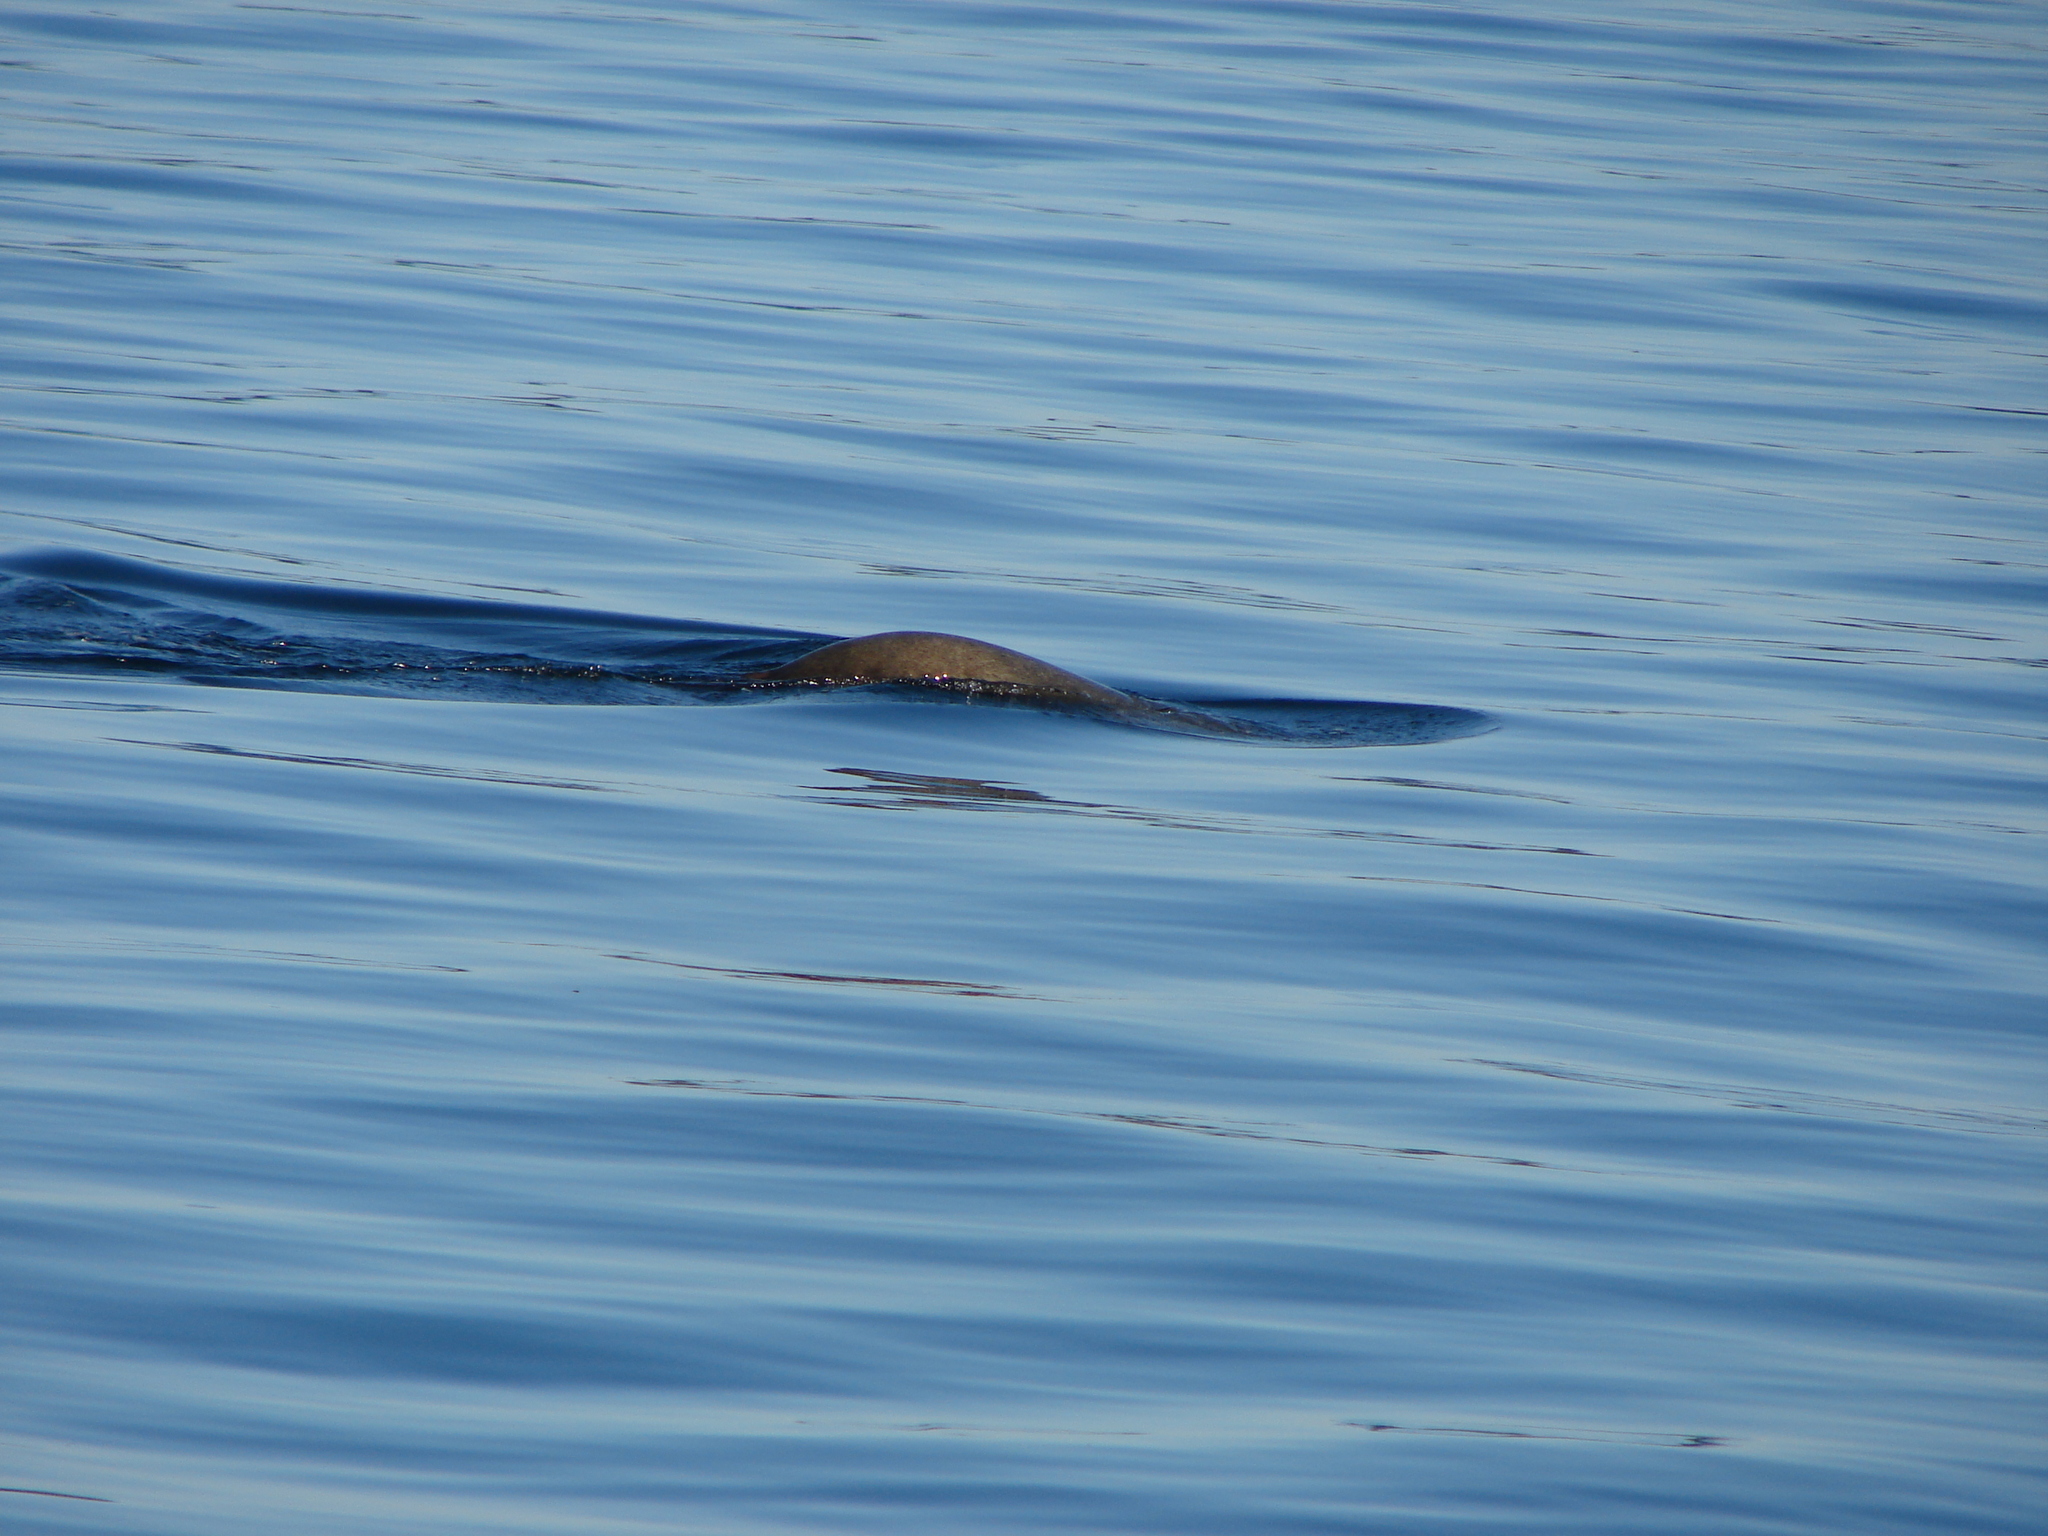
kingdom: Animalia
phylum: Chordata
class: Mammalia
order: Carnivora
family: Otariidae
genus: Zalophus
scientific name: Zalophus californianus
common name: California sea lion
